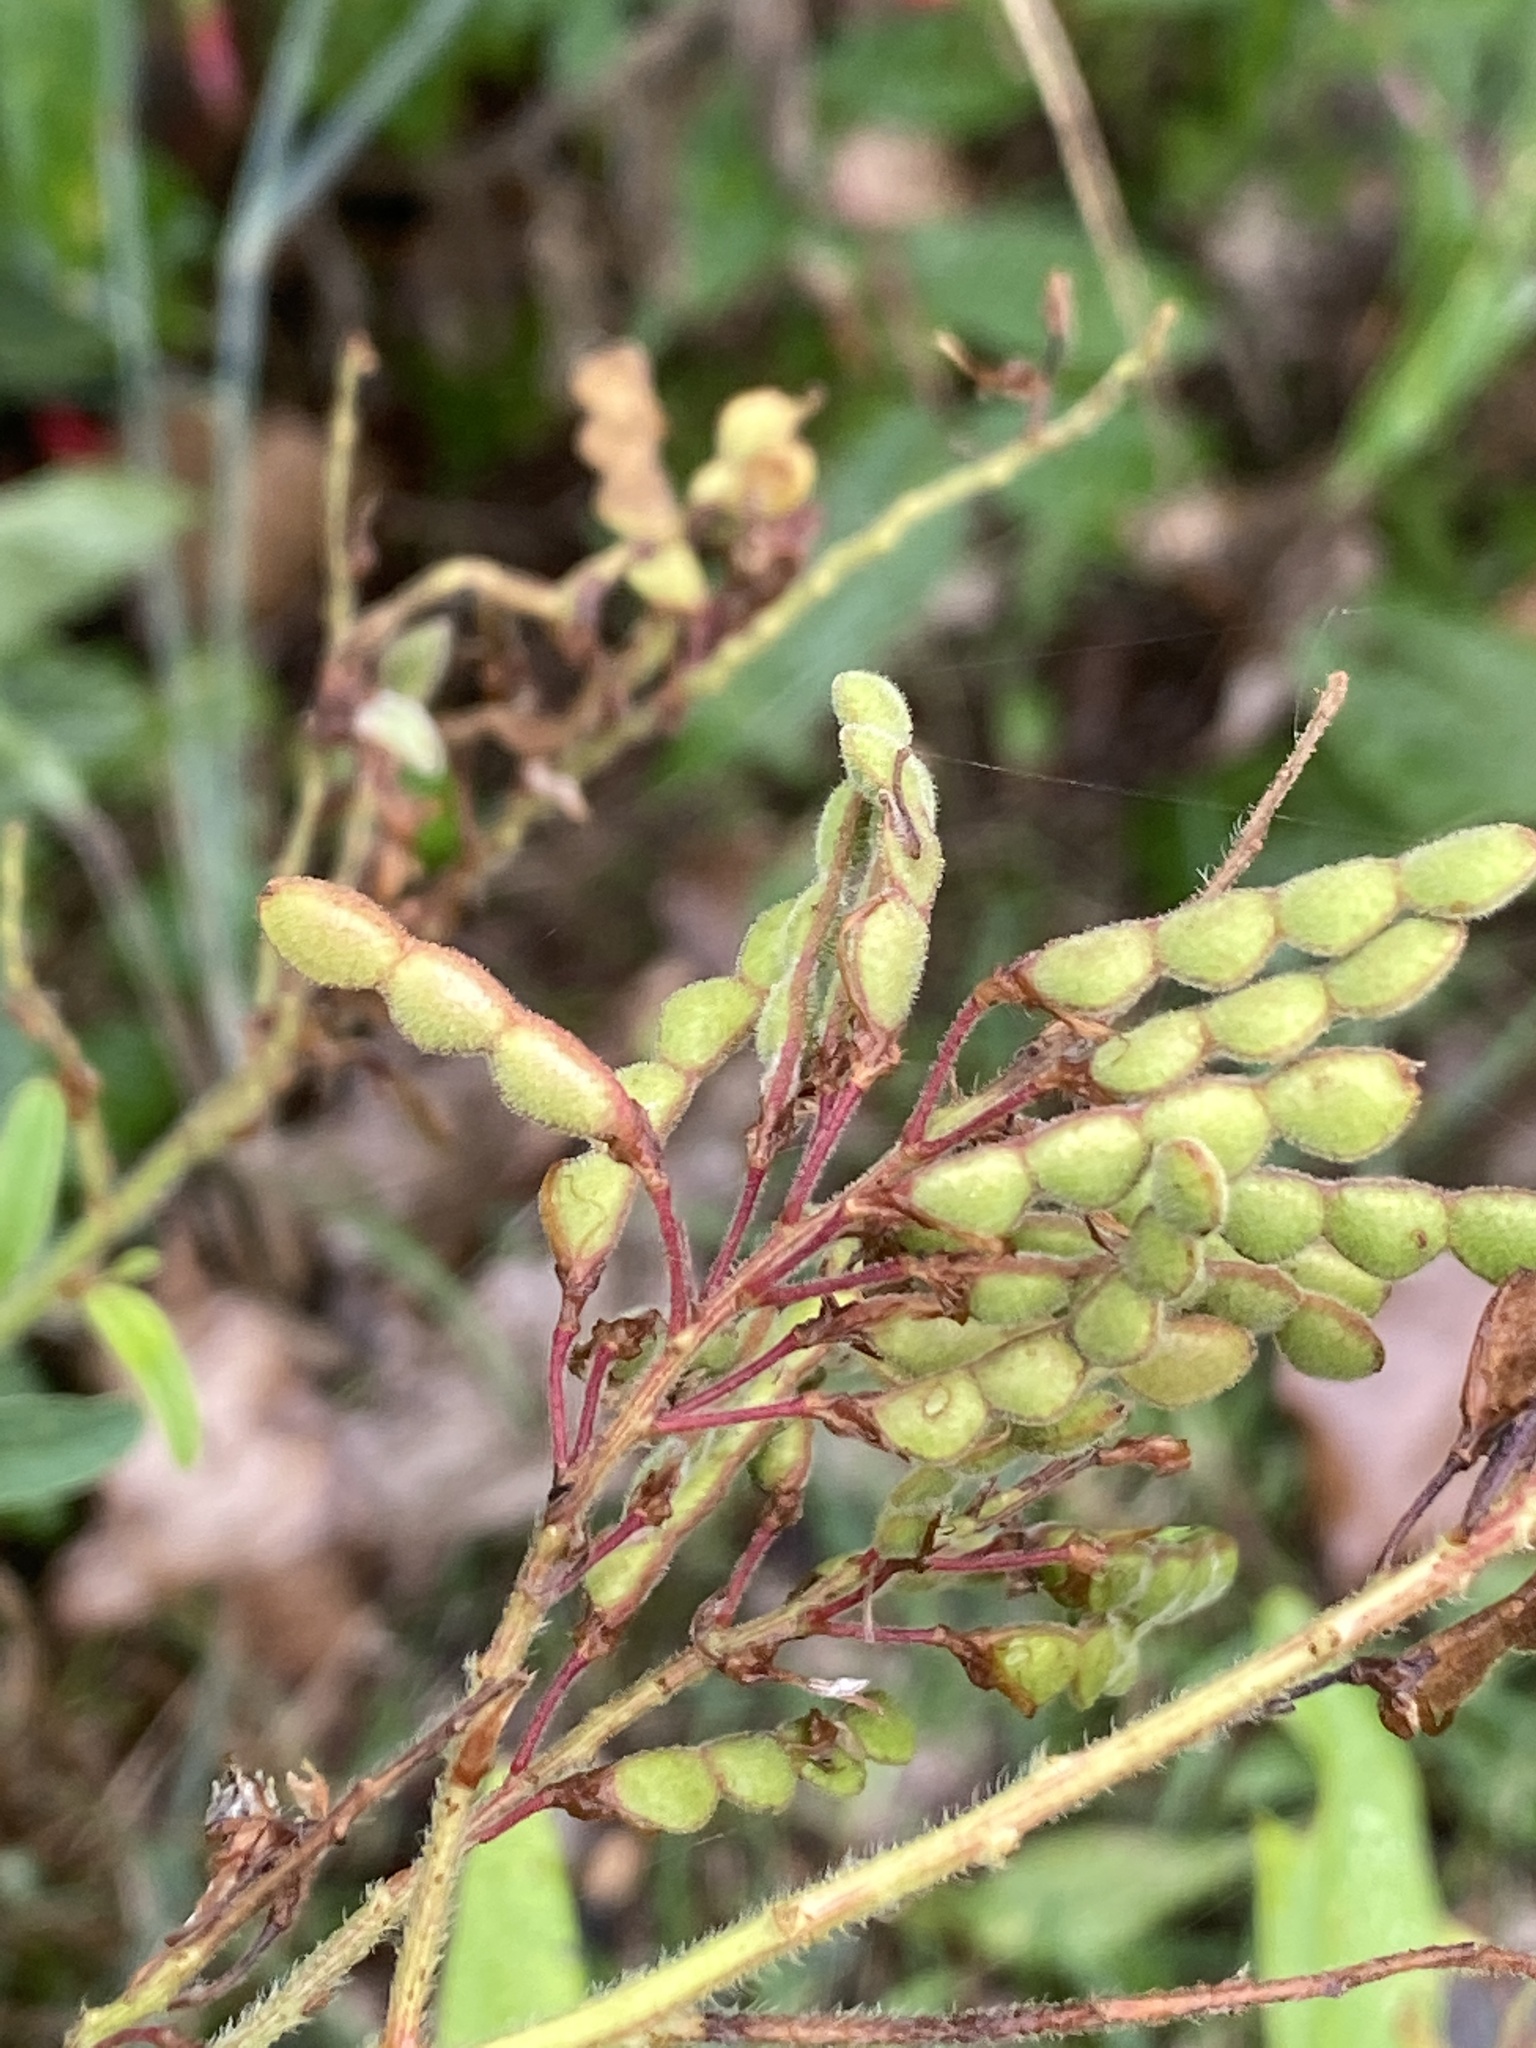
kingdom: Plantae
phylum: Tracheophyta
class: Magnoliopsida
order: Fabales
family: Fabaceae
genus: Desmodium
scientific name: Desmodium canadense
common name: Canada tick-trefoil
